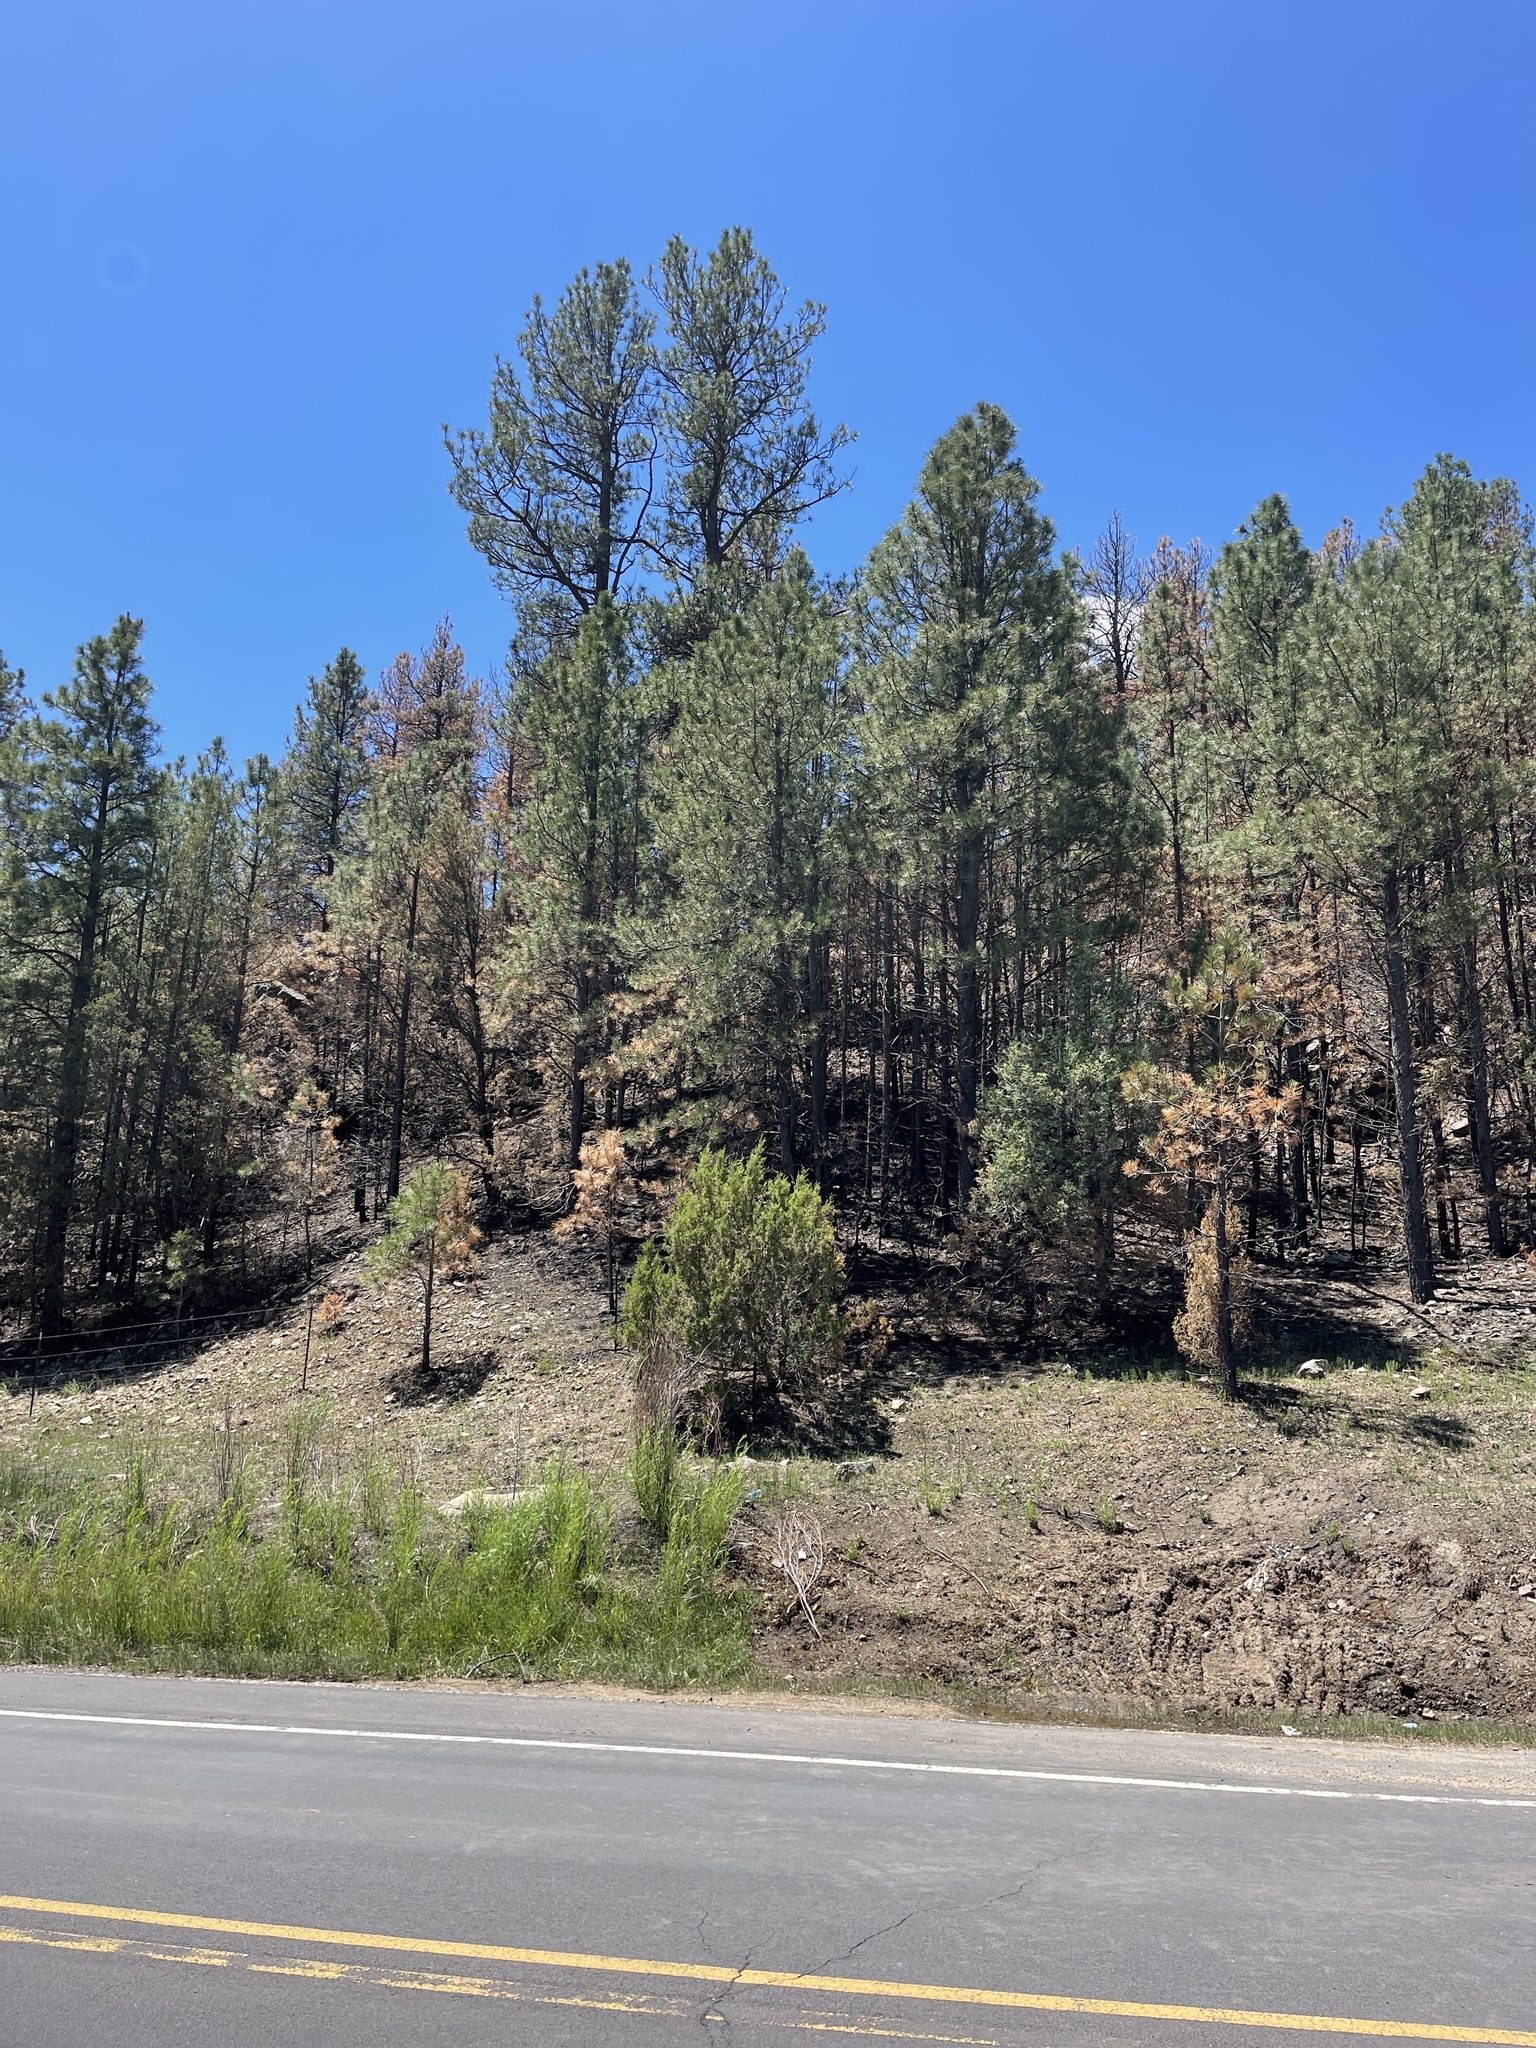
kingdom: Plantae
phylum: Tracheophyta
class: Pinopsida
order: Pinales
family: Pinaceae
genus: Pinus
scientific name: Pinus ponderosa
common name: Western yellow-pine
